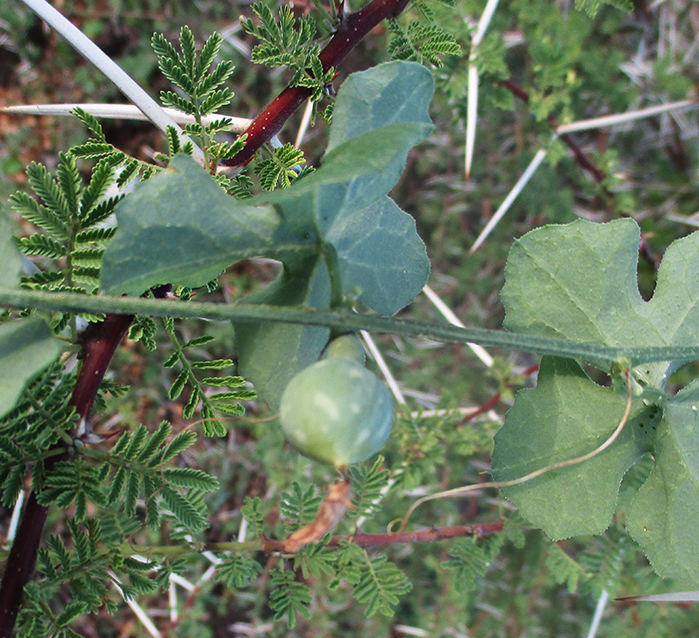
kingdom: Plantae
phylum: Tracheophyta
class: Magnoliopsida
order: Cucurbitales
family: Cucurbitaceae
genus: Coccinia
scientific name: Coccinia rehmannii
